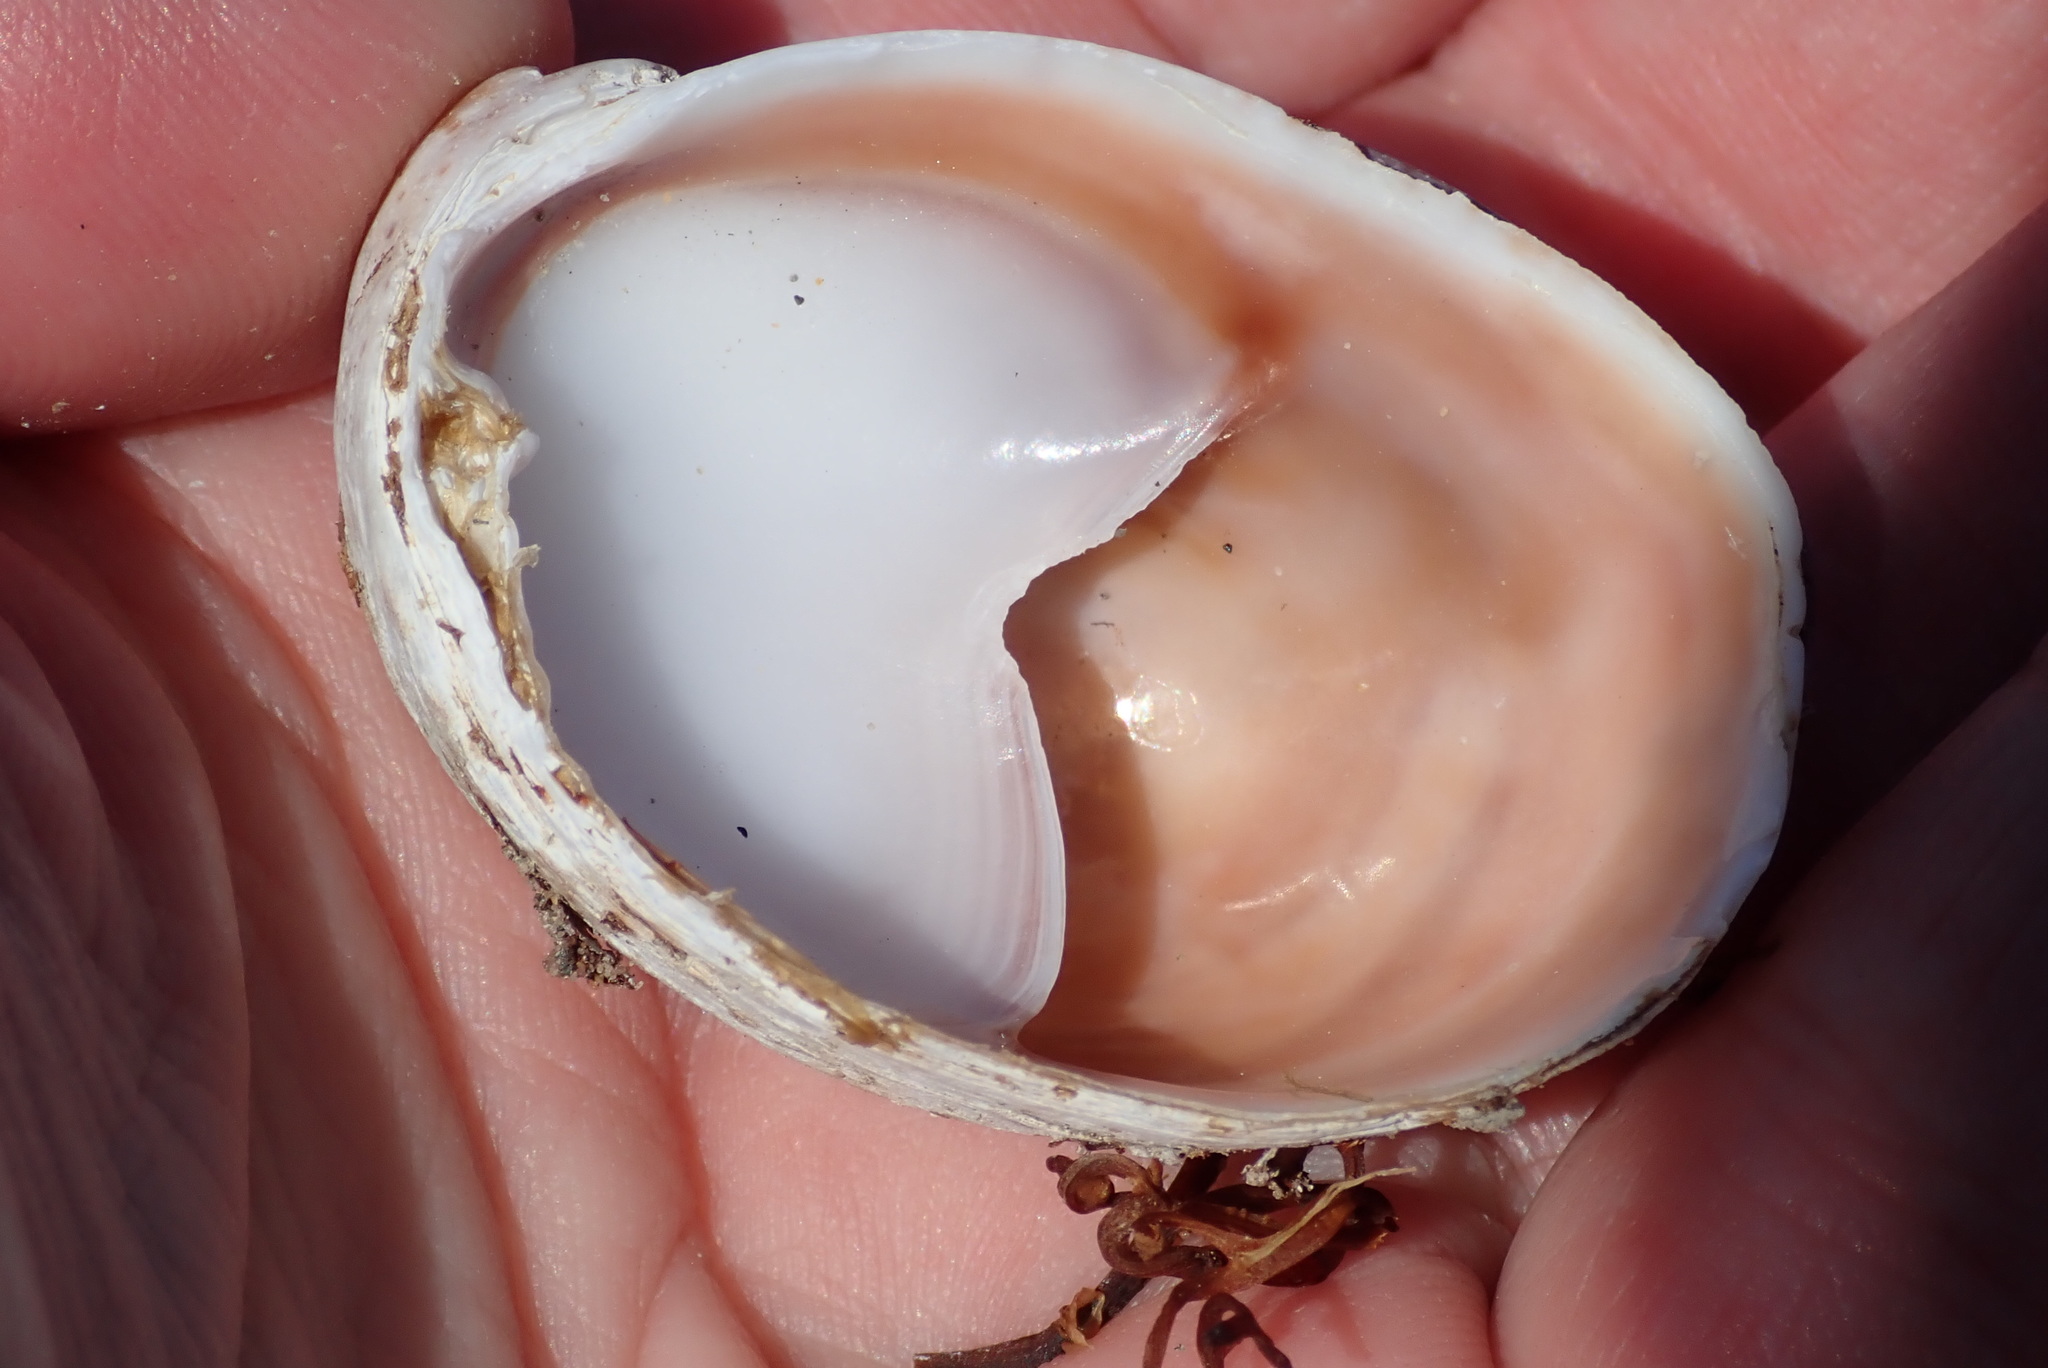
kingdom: Animalia
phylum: Mollusca
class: Gastropoda
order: Littorinimorpha
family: Calyptraeidae
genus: Crepidula
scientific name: Crepidula fornicata
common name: Slipper limpet
